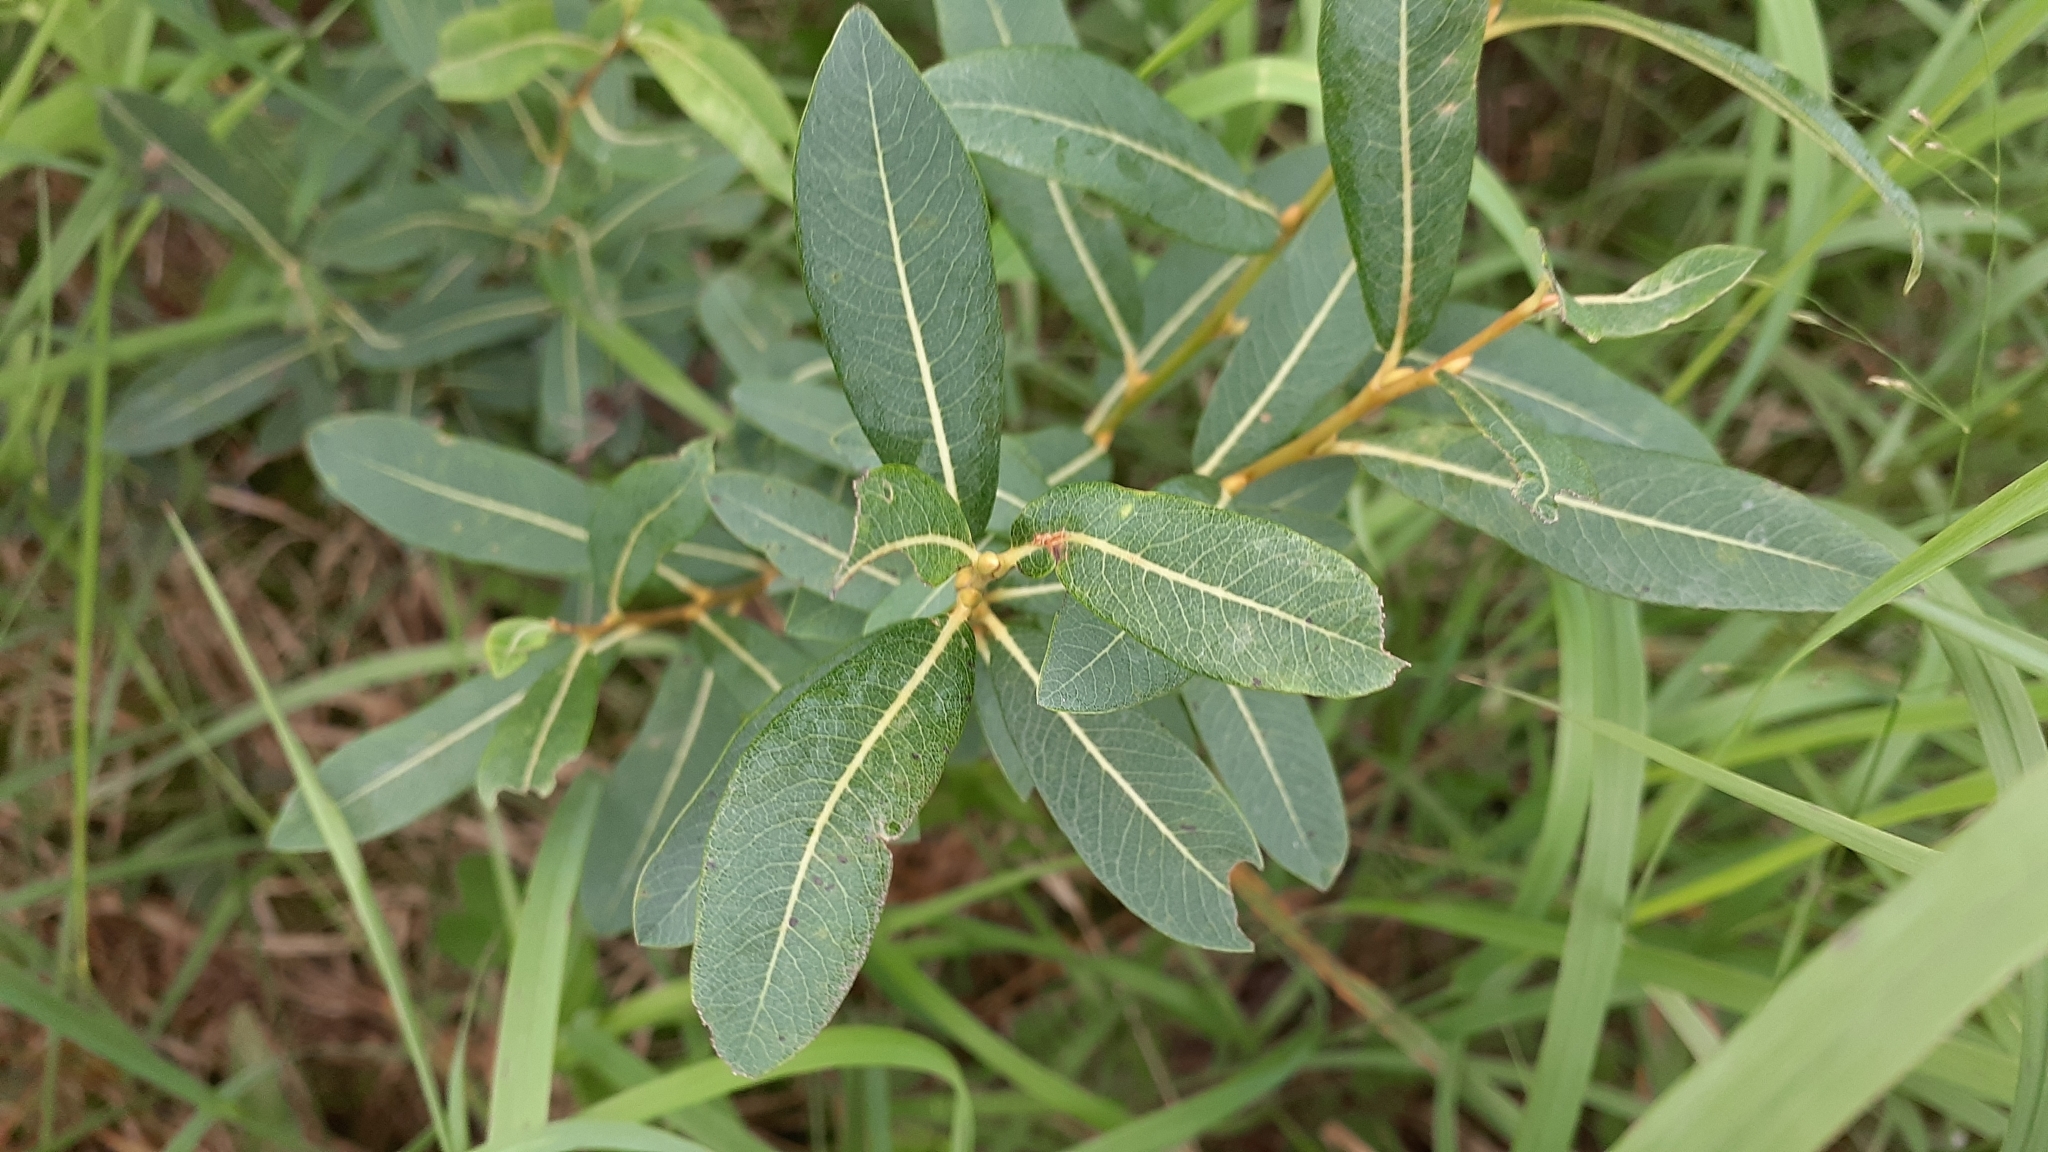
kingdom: Plantae
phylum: Tracheophyta
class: Magnoliopsida
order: Malpighiales
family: Salicaceae
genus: Salix
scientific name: Salix pedicellaris
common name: Bog willow
